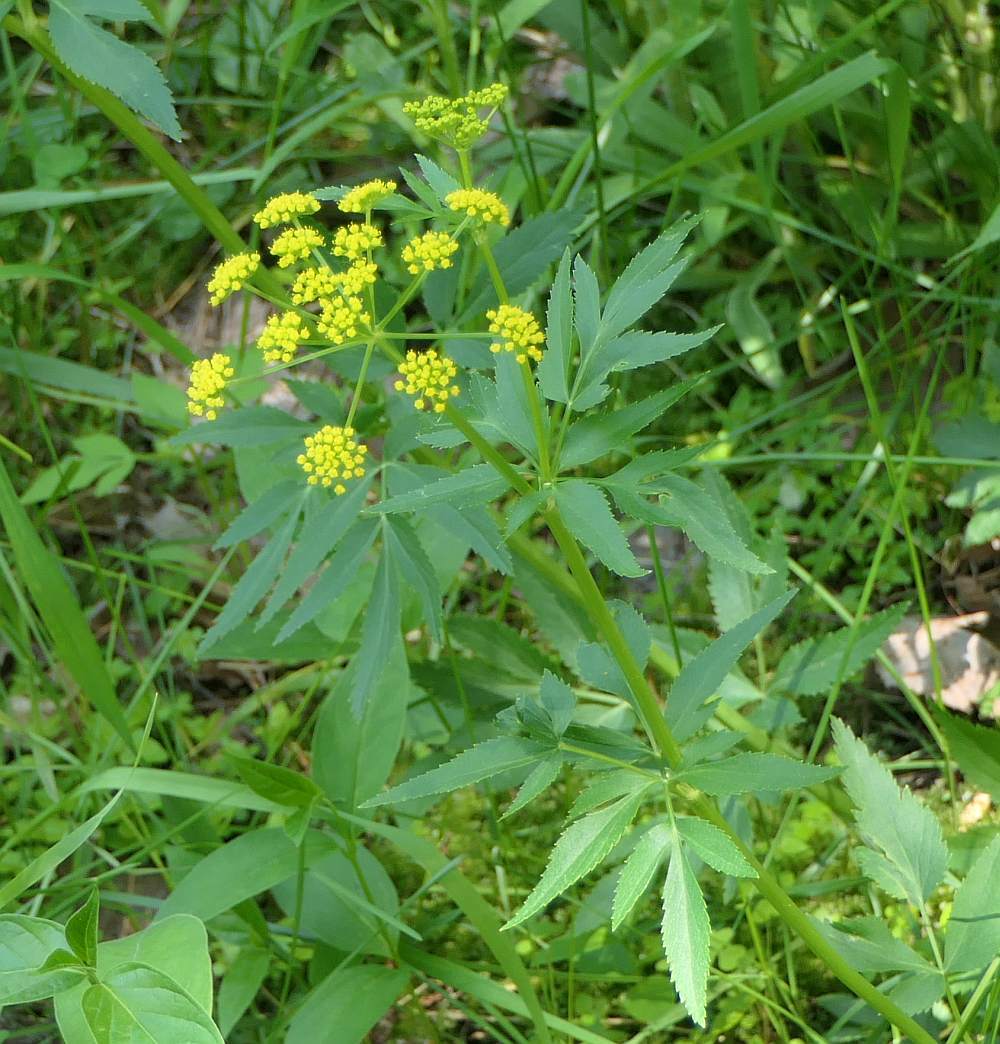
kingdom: Plantae
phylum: Tracheophyta
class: Magnoliopsida
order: Apiales
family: Apiaceae
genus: Zizia
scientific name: Zizia aurea
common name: Golden alexanders
